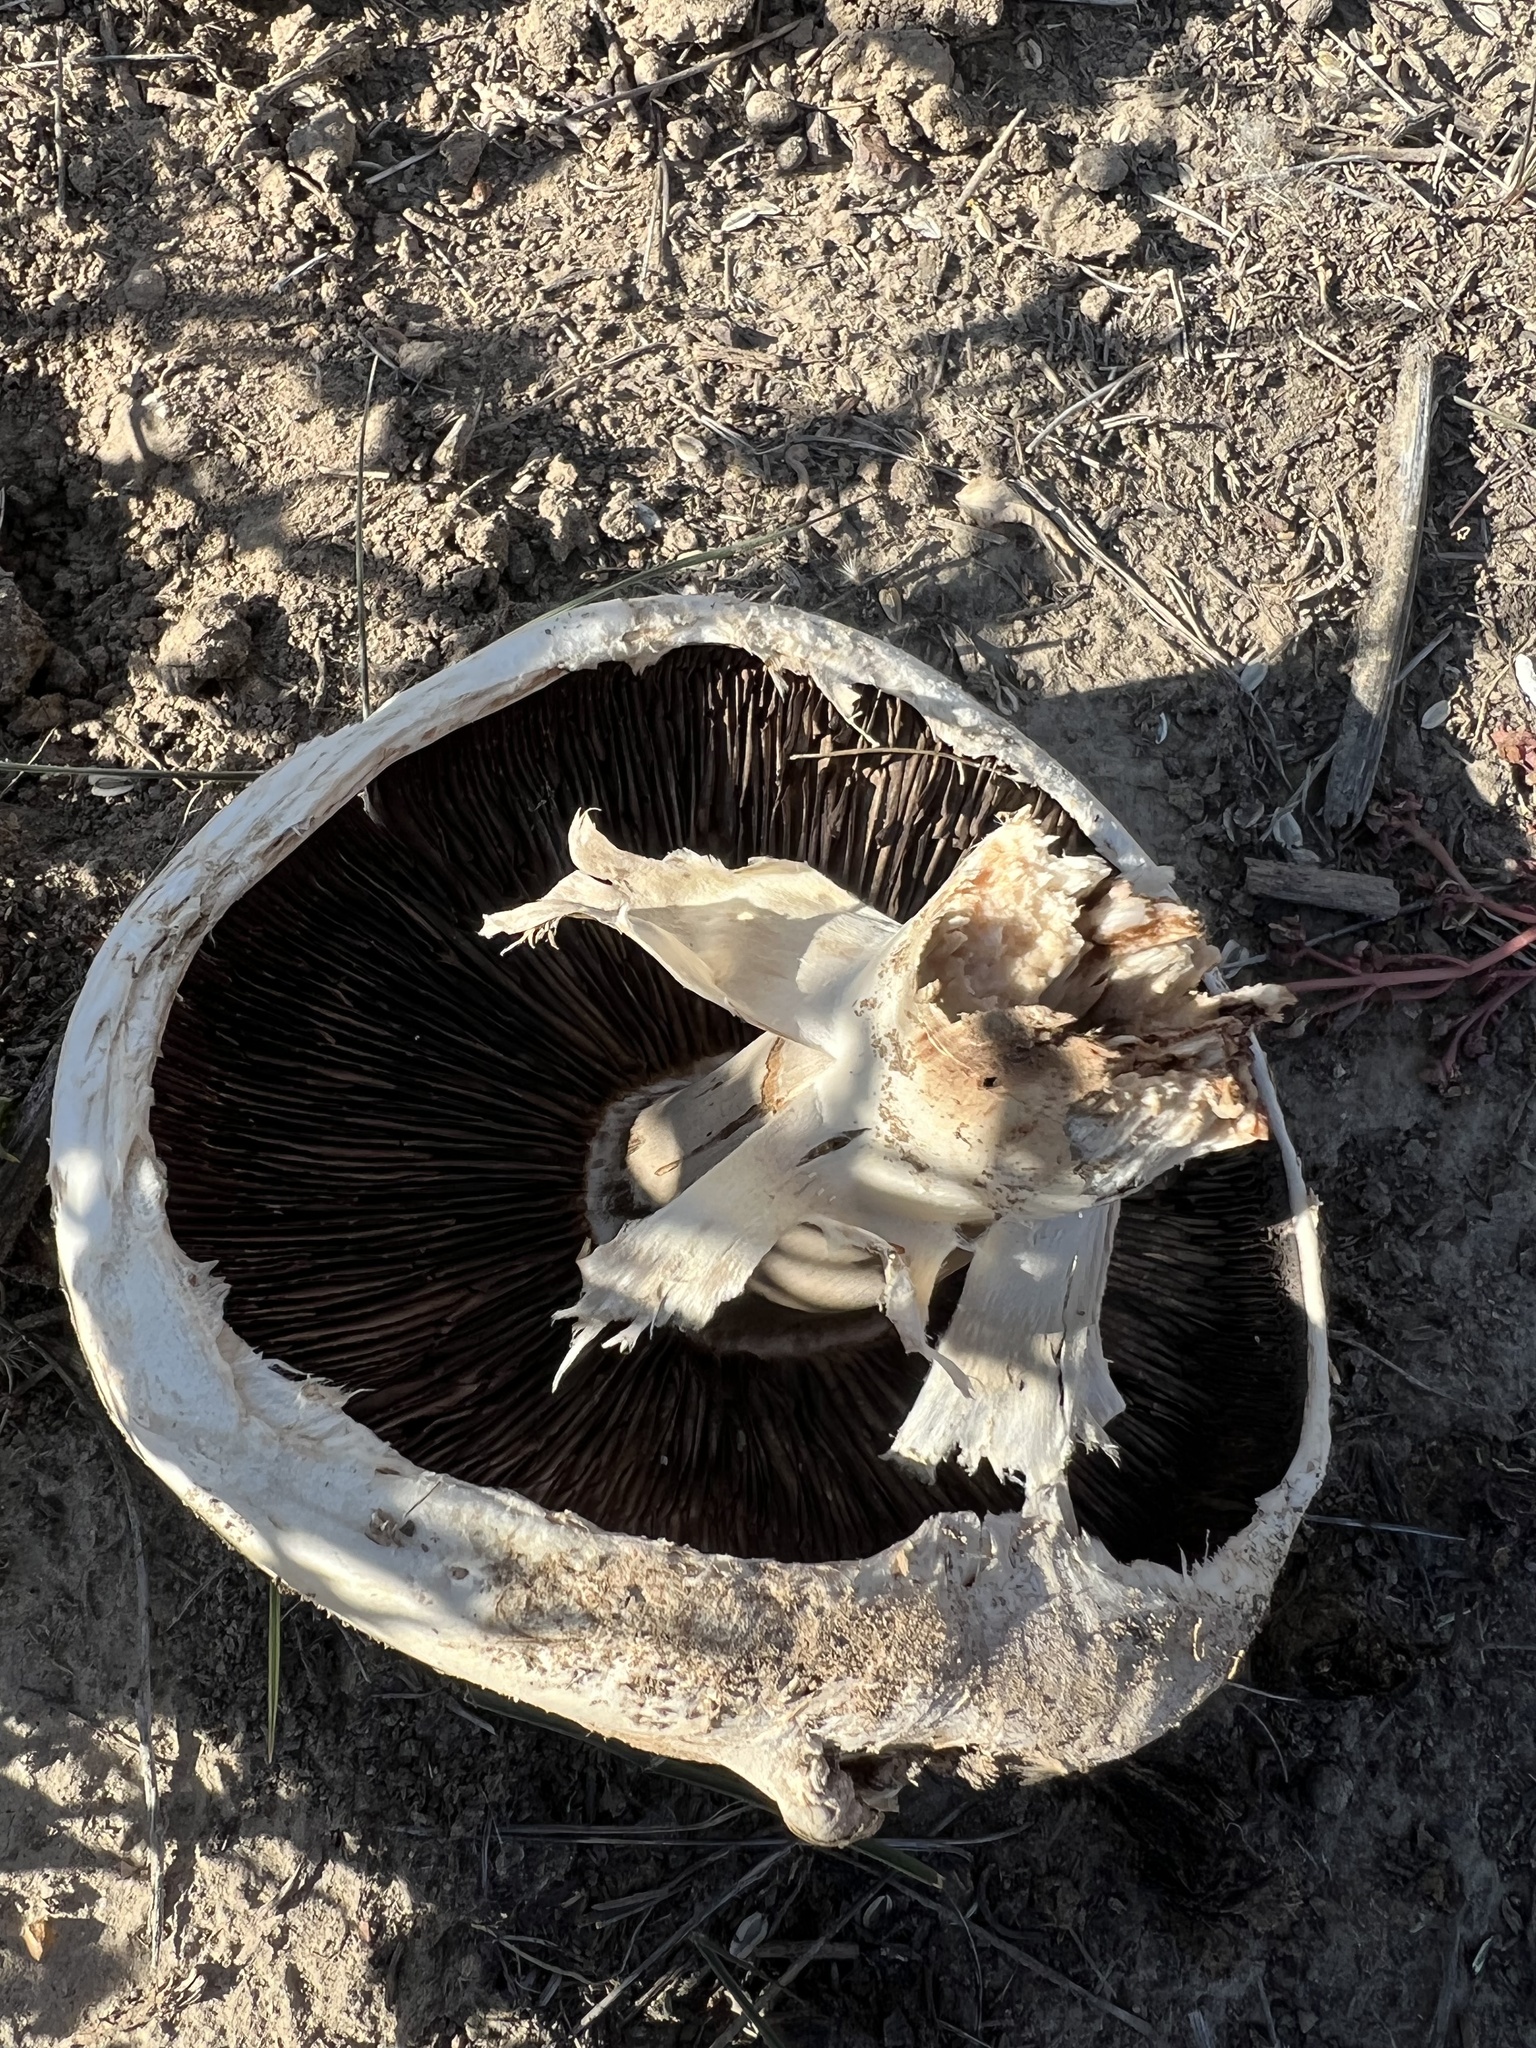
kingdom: Fungi
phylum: Basidiomycota
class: Agaricomycetes
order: Agaricales
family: Agaricaceae
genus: Agaricus
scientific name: Agaricus bernardii
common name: Salty mushroom
